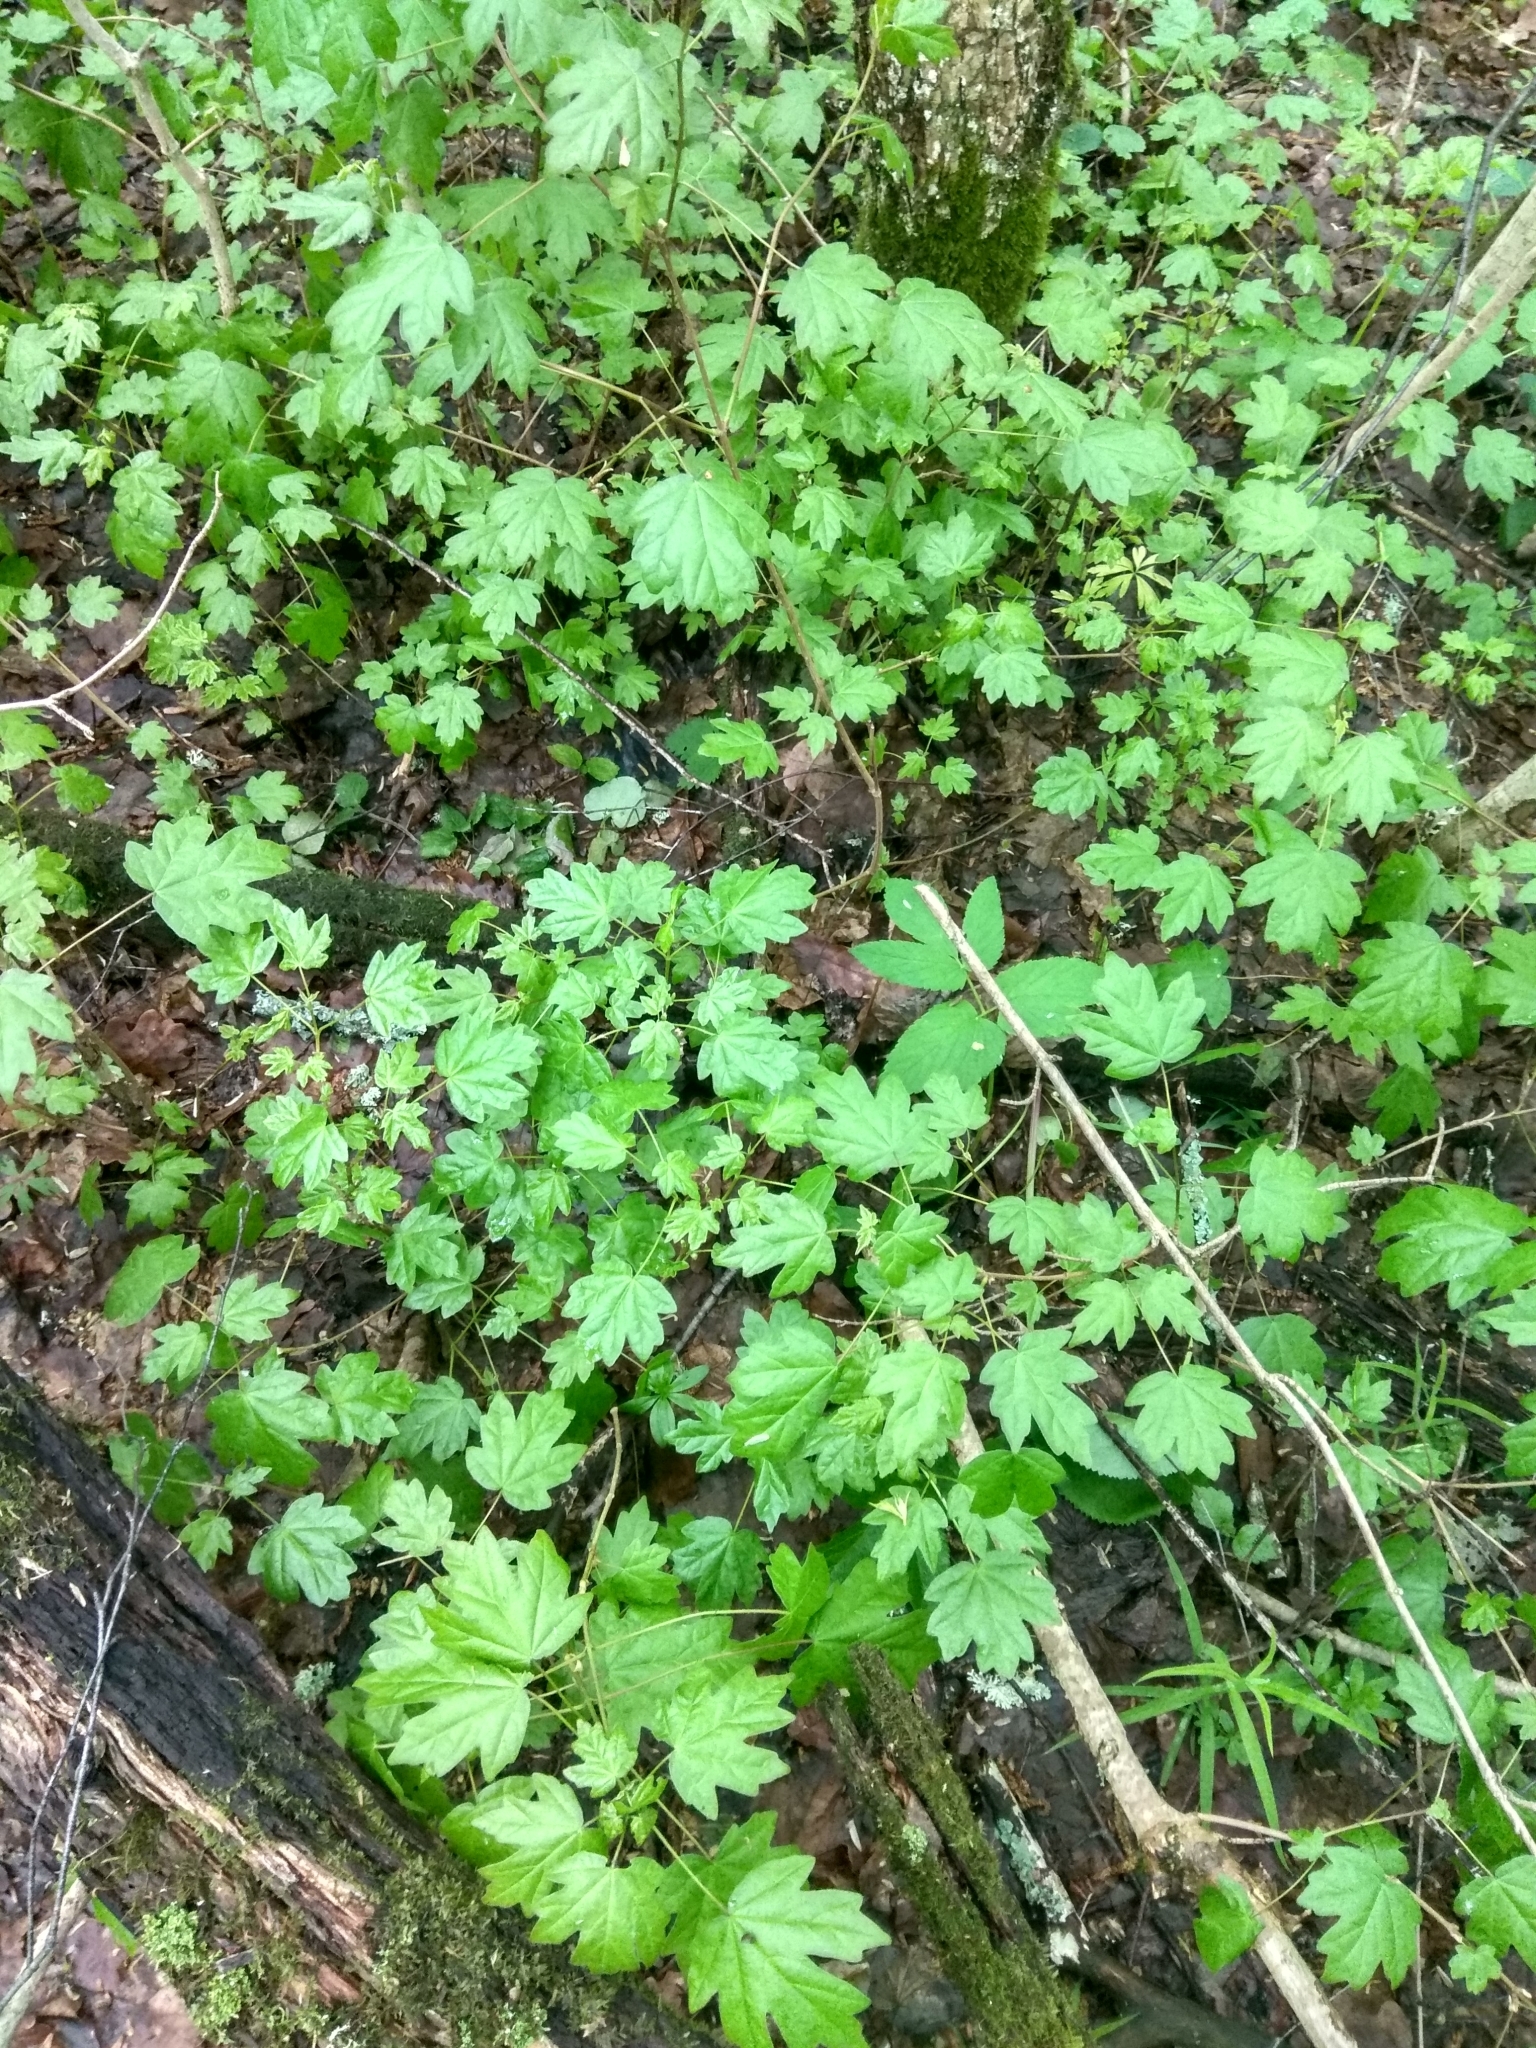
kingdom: Plantae
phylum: Tracheophyta
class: Magnoliopsida
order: Sapindales
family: Sapindaceae
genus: Acer
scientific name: Acer campestre
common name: Field maple
